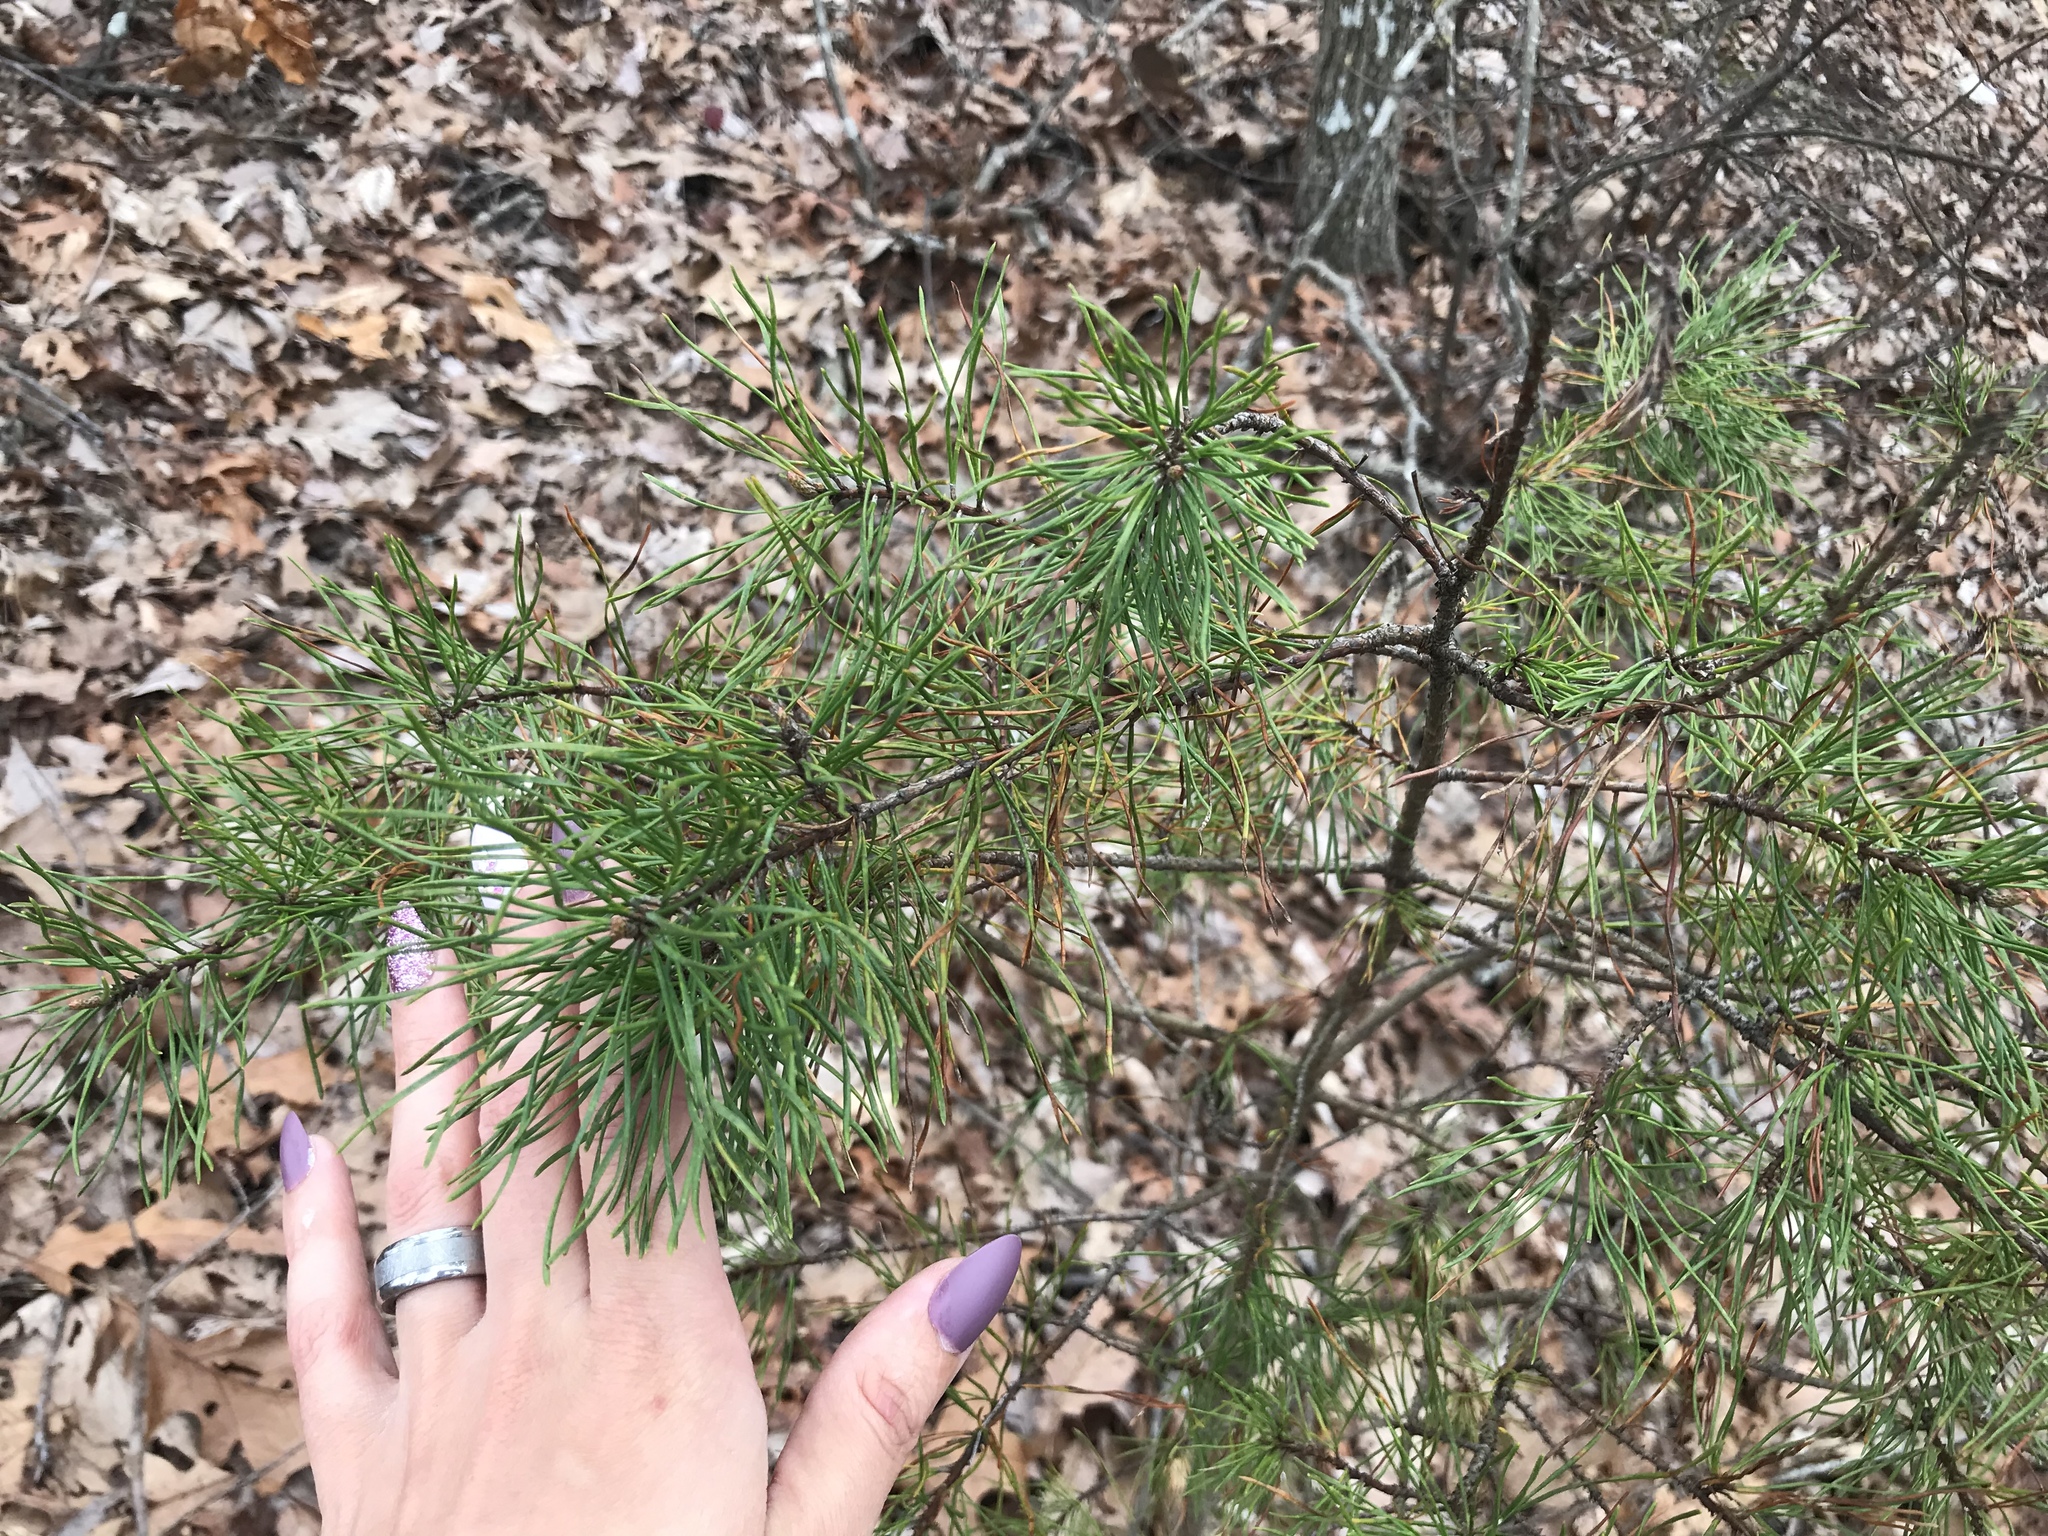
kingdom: Plantae
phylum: Tracheophyta
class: Pinopsida
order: Pinales
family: Pinaceae
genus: Pinus
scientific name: Pinus virginiana
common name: Scrub pine
